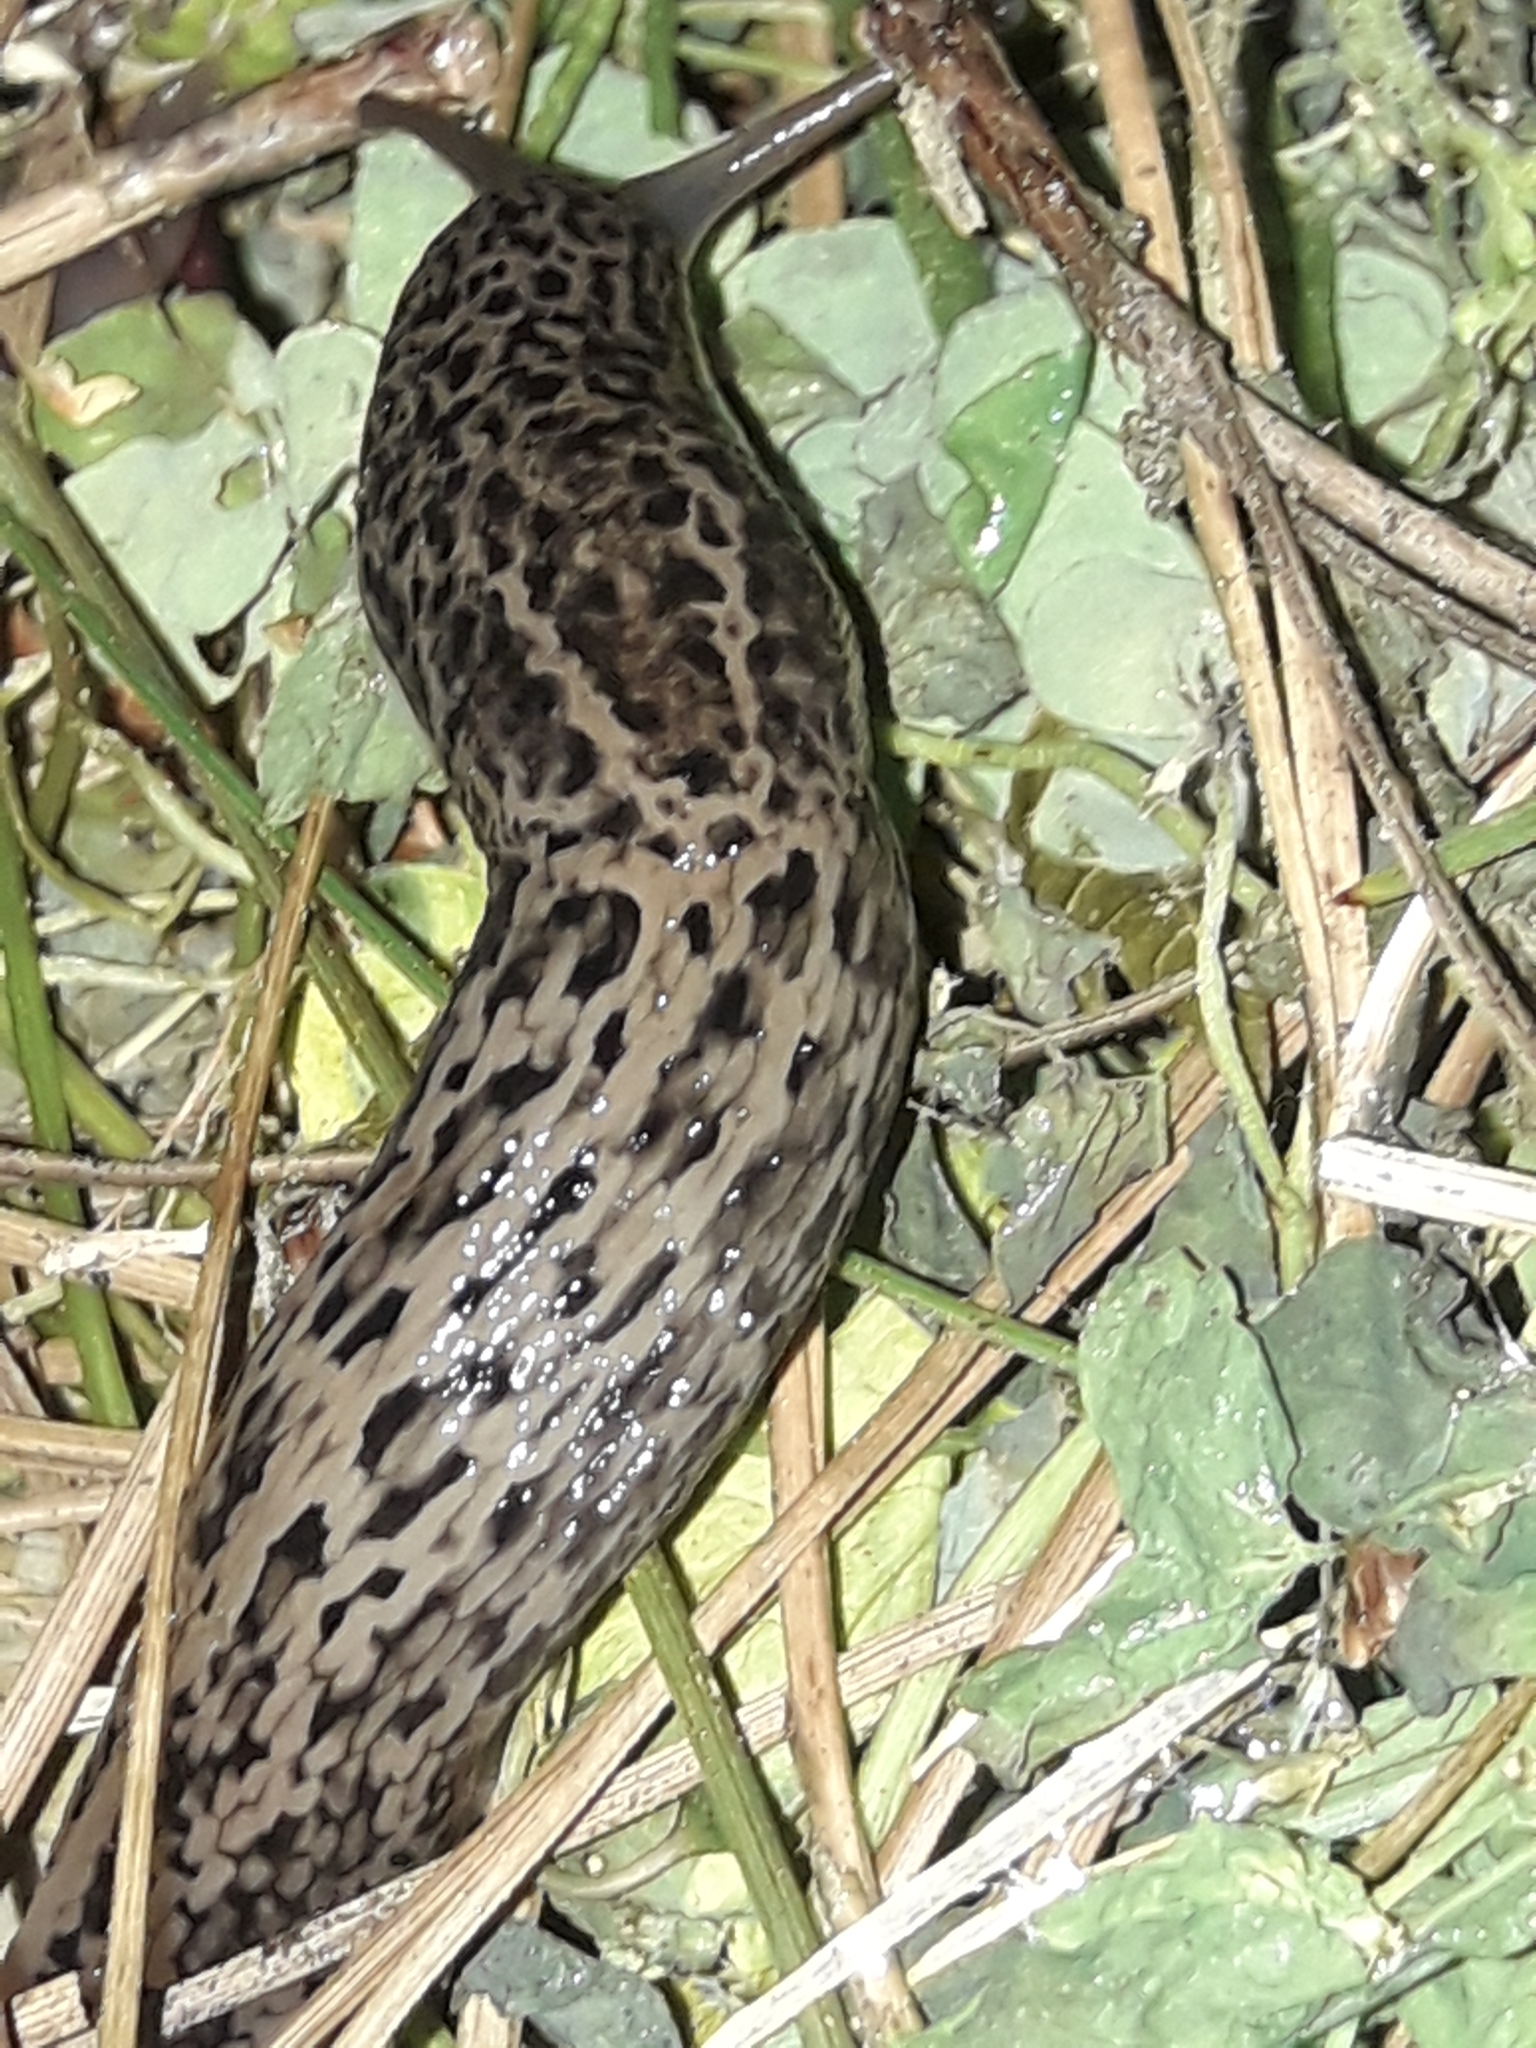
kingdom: Animalia
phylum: Mollusca
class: Gastropoda
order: Stylommatophora
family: Limacidae
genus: Limax
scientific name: Limax maximus
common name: Great grey slug
